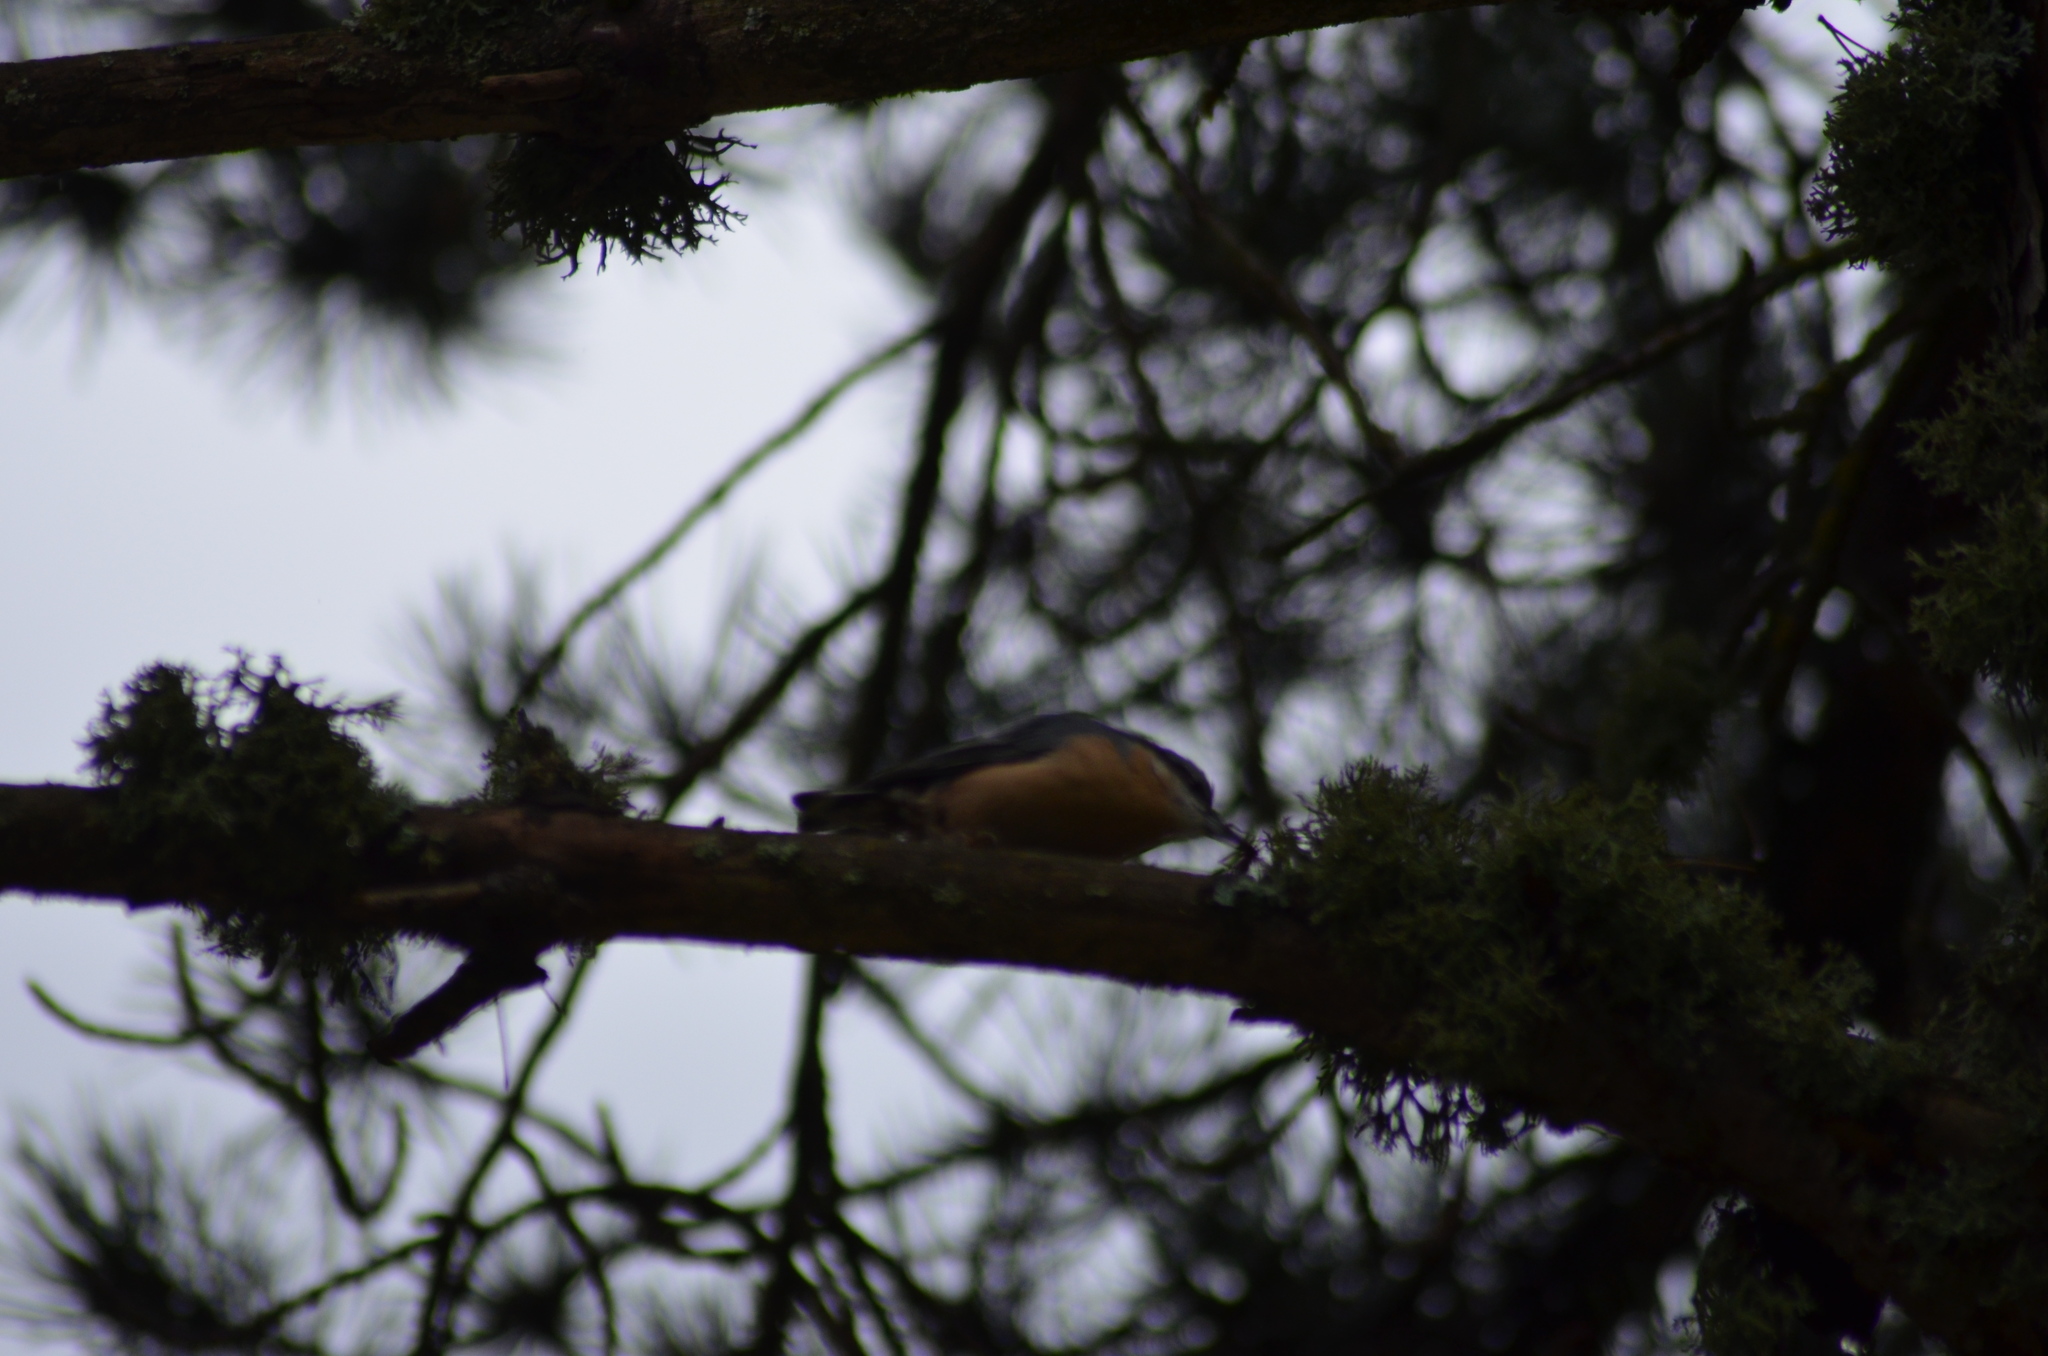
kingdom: Animalia
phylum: Chordata
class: Aves
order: Passeriformes
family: Sittidae
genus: Sitta
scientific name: Sitta europaea
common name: Eurasian nuthatch
